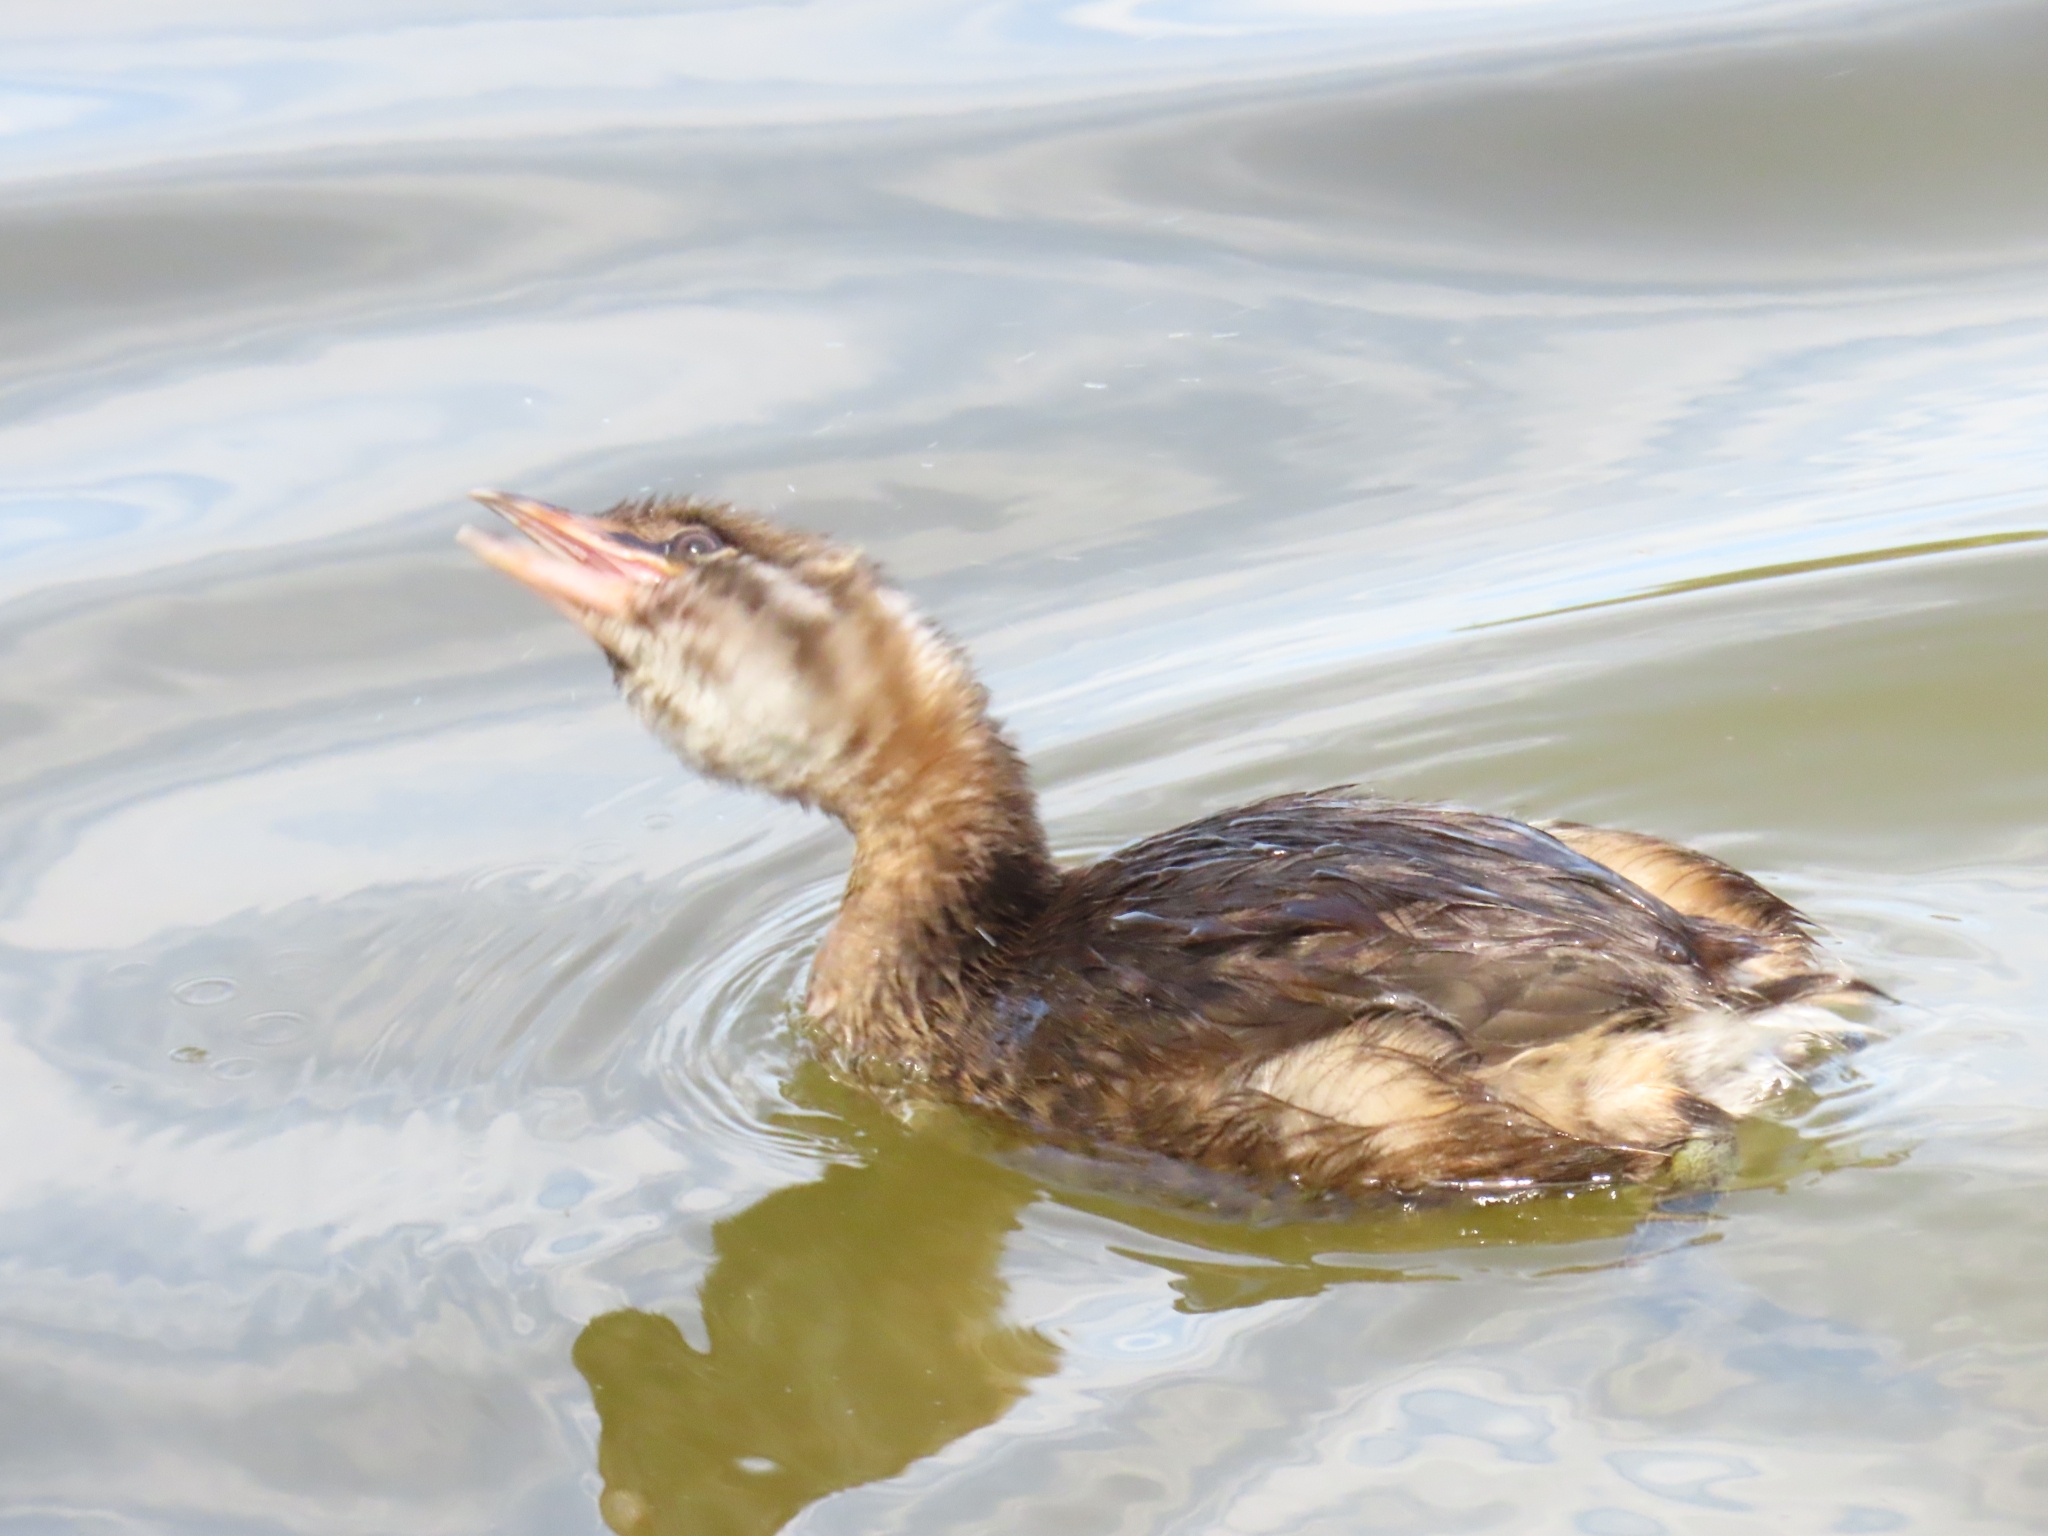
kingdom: Animalia
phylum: Chordata
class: Aves
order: Podicipediformes
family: Podicipedidae
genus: Podilymbus
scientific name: Podilymbus podiceps
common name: Pied-billed grebe
